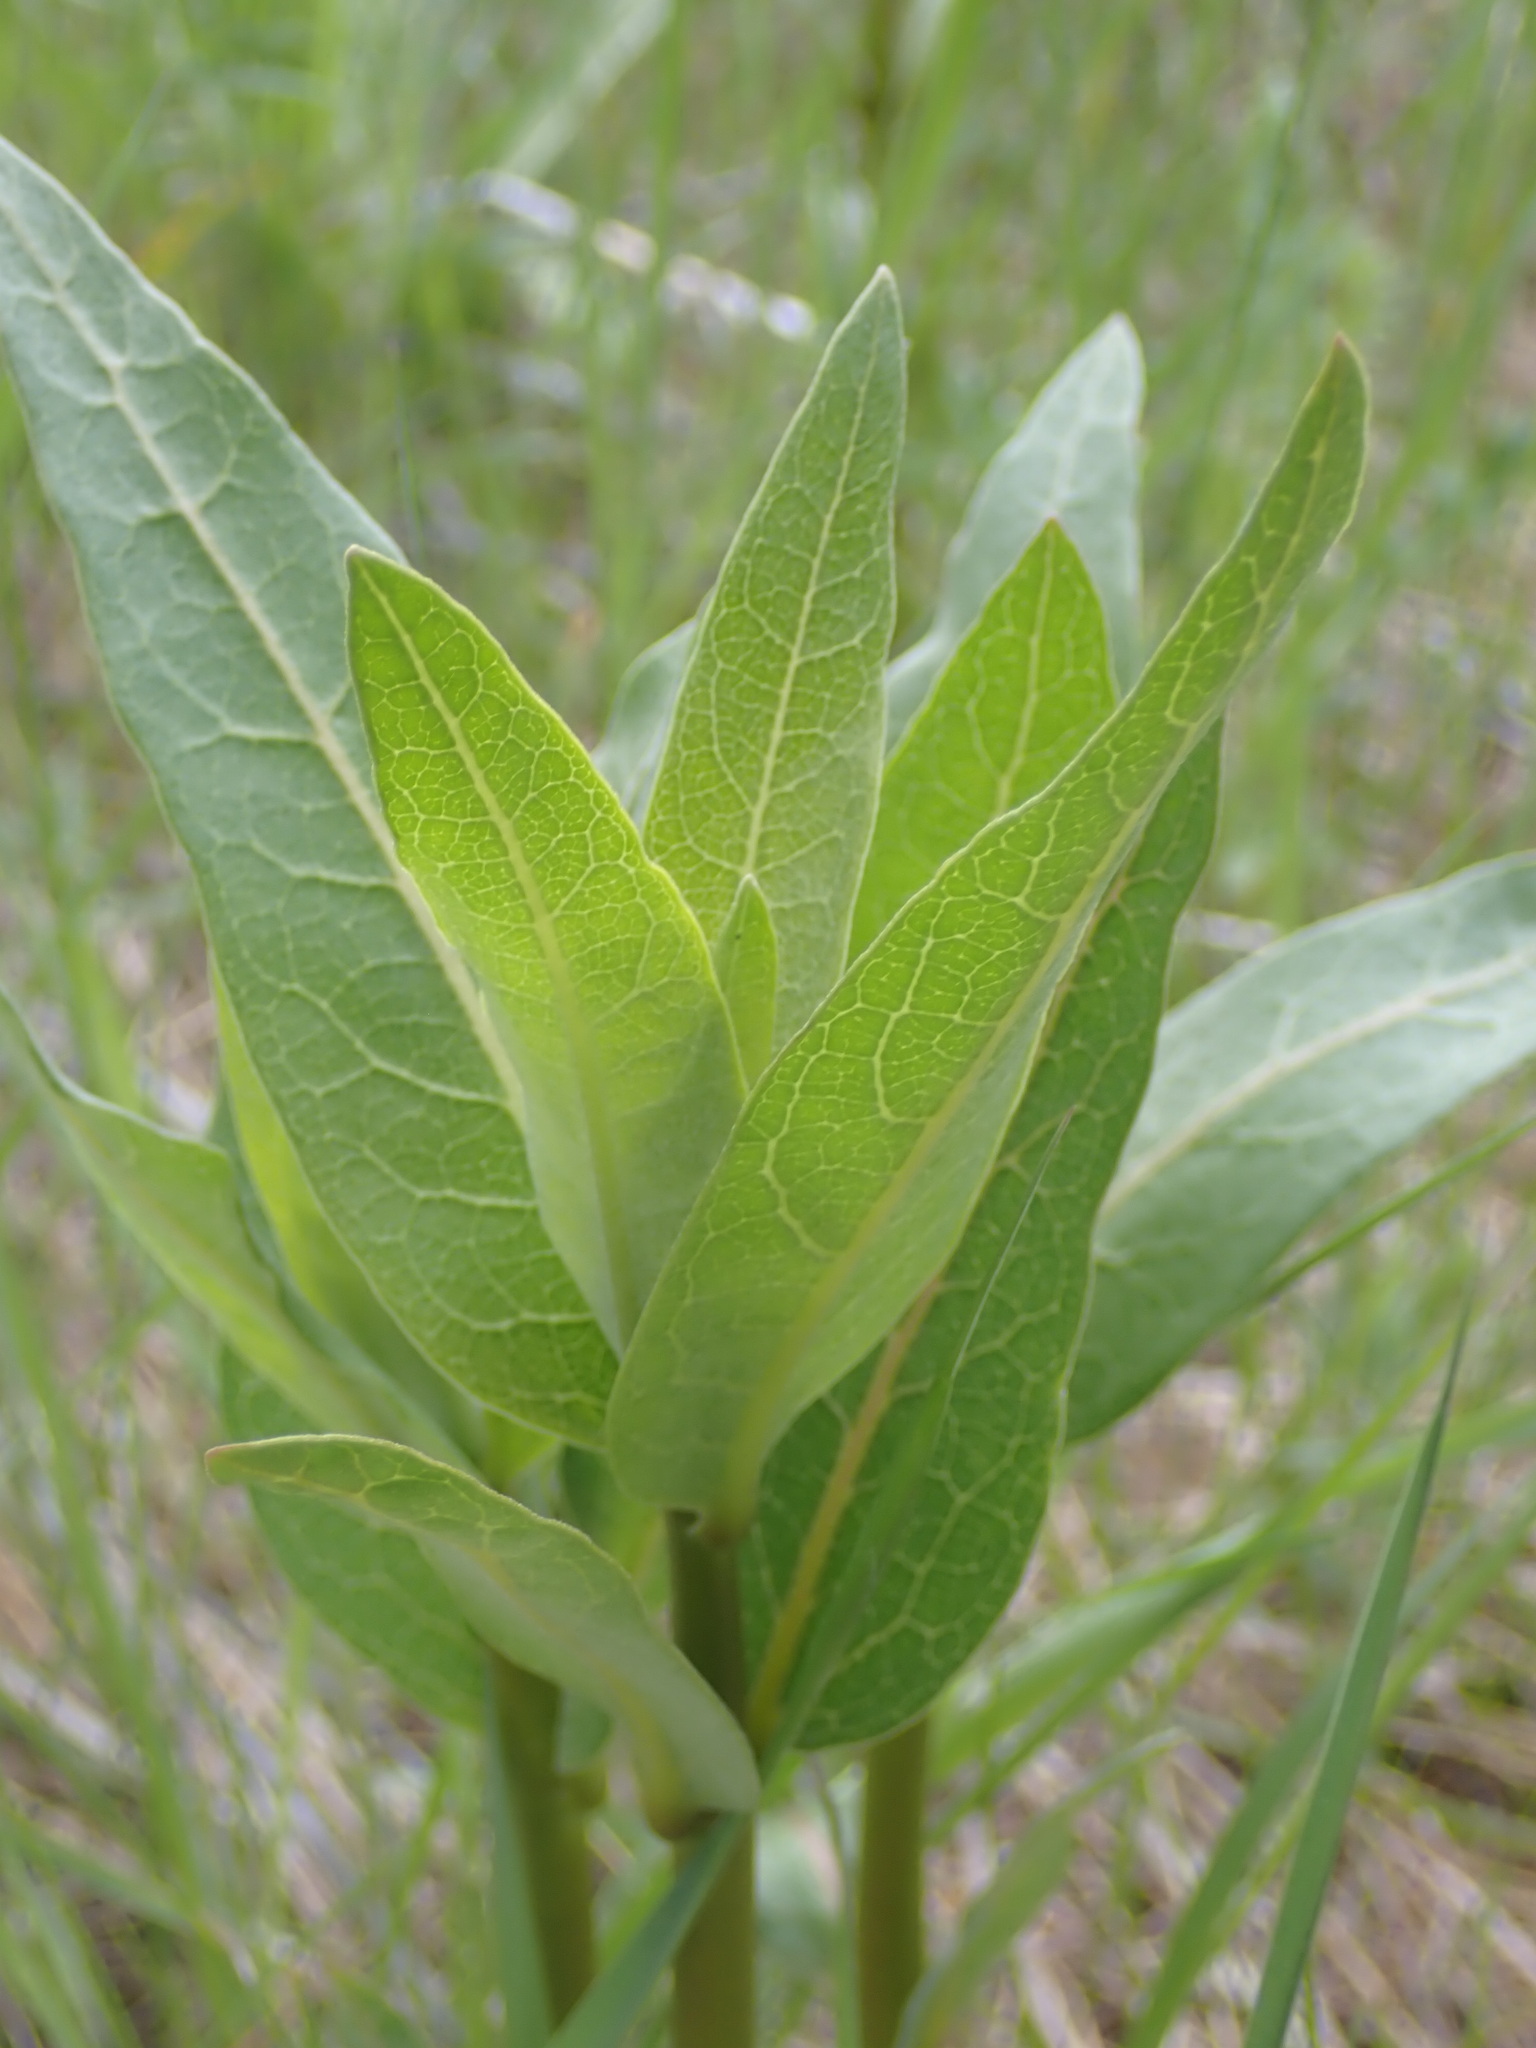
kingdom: Plantae
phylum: Tracheophyta
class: Magnoliopsida
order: Gentianales
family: Apocynaceae
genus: Asclepias
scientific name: Asclepias speciosa
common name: Showy milkweed
